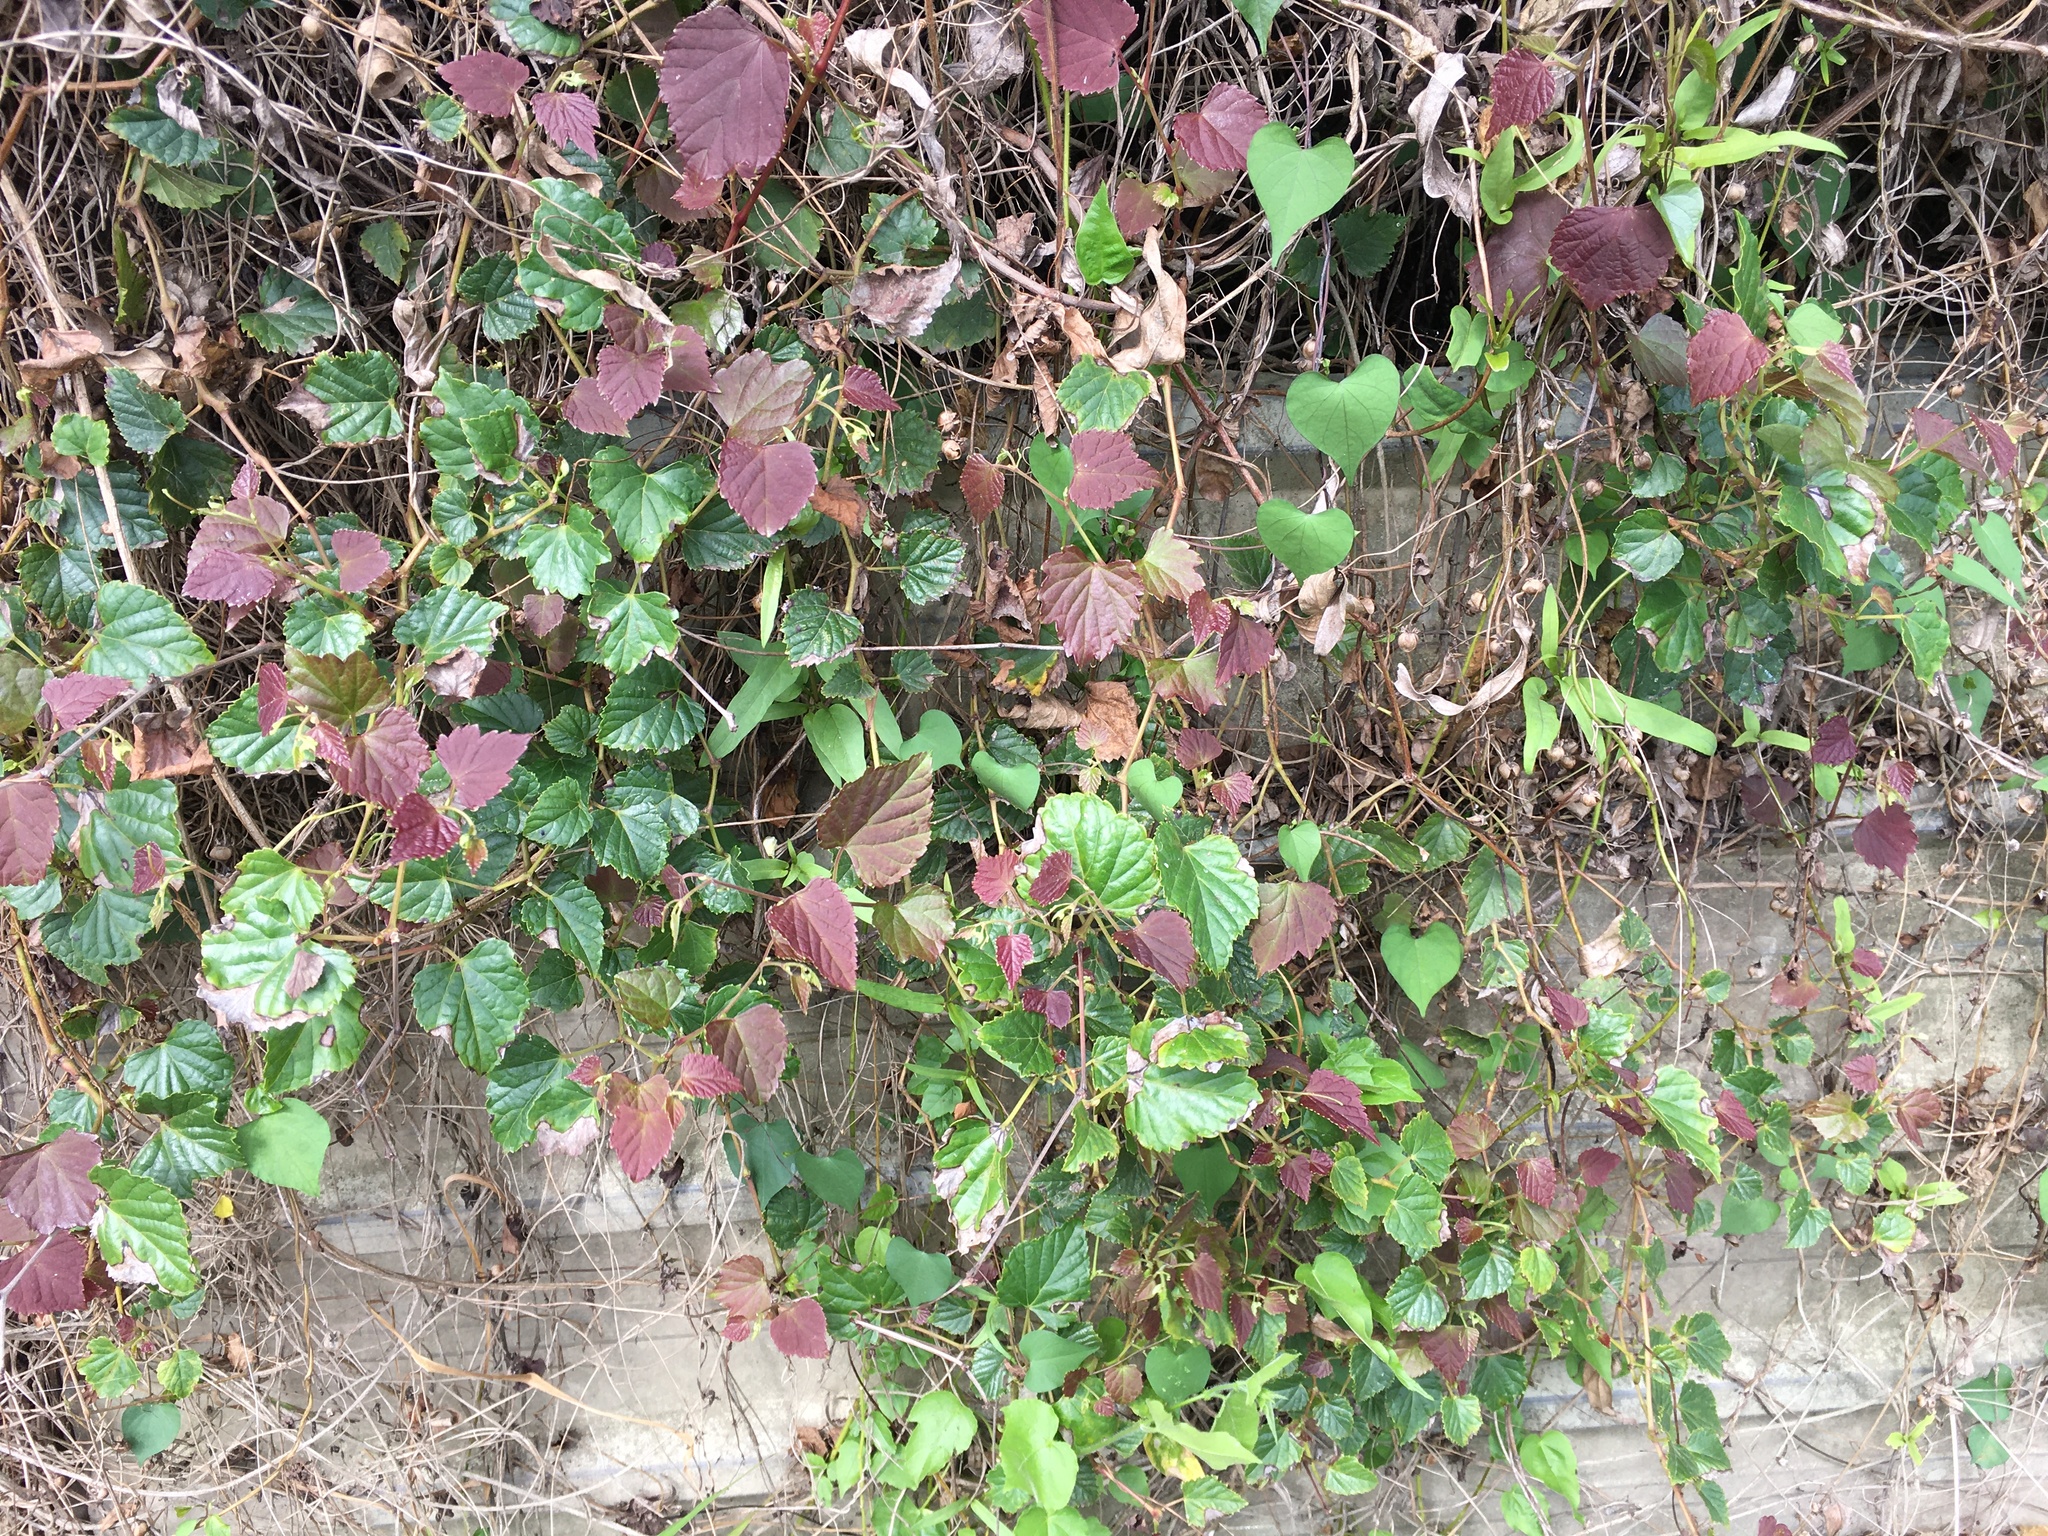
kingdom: Plantae
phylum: Tracheophyta
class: Magnoliopsida
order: Vitales
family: Vitaceae
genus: Ampelopsis
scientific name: Ampelopsis glandulosa
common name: Amur peppervine
